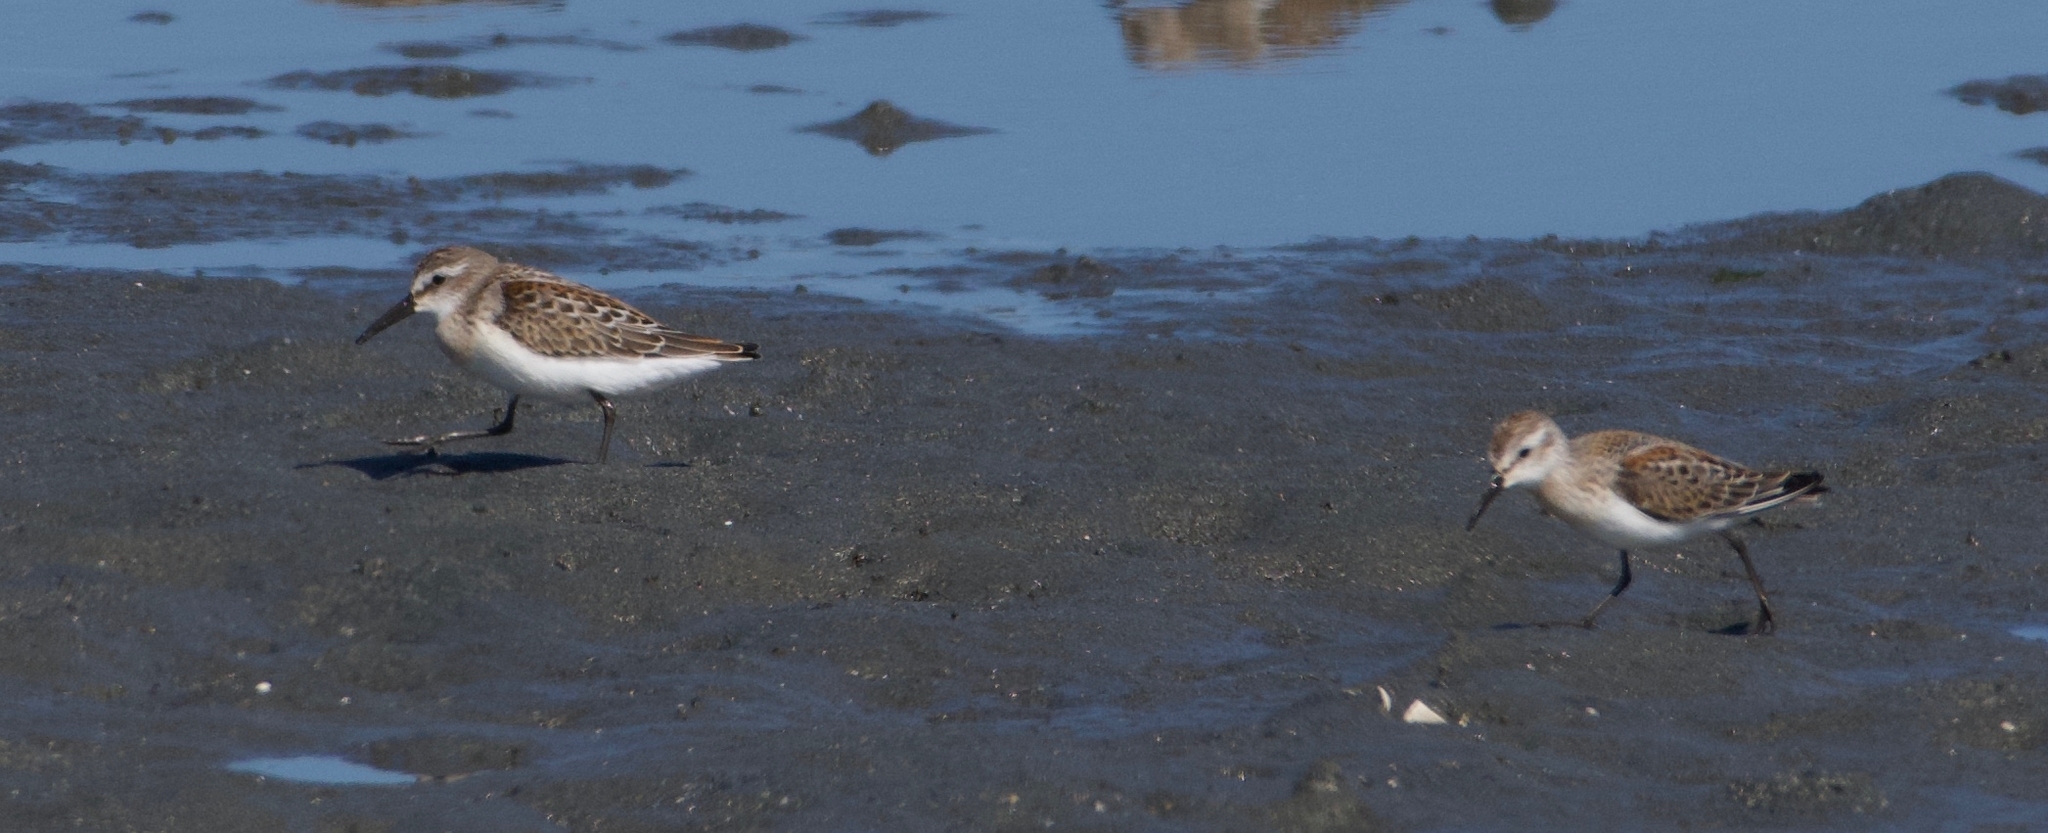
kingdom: Animalia
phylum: Chordata
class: Aves
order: Charadriiformes
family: Scolopacidae
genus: Calidris
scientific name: Calidris mauri
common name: Western sandpiper
